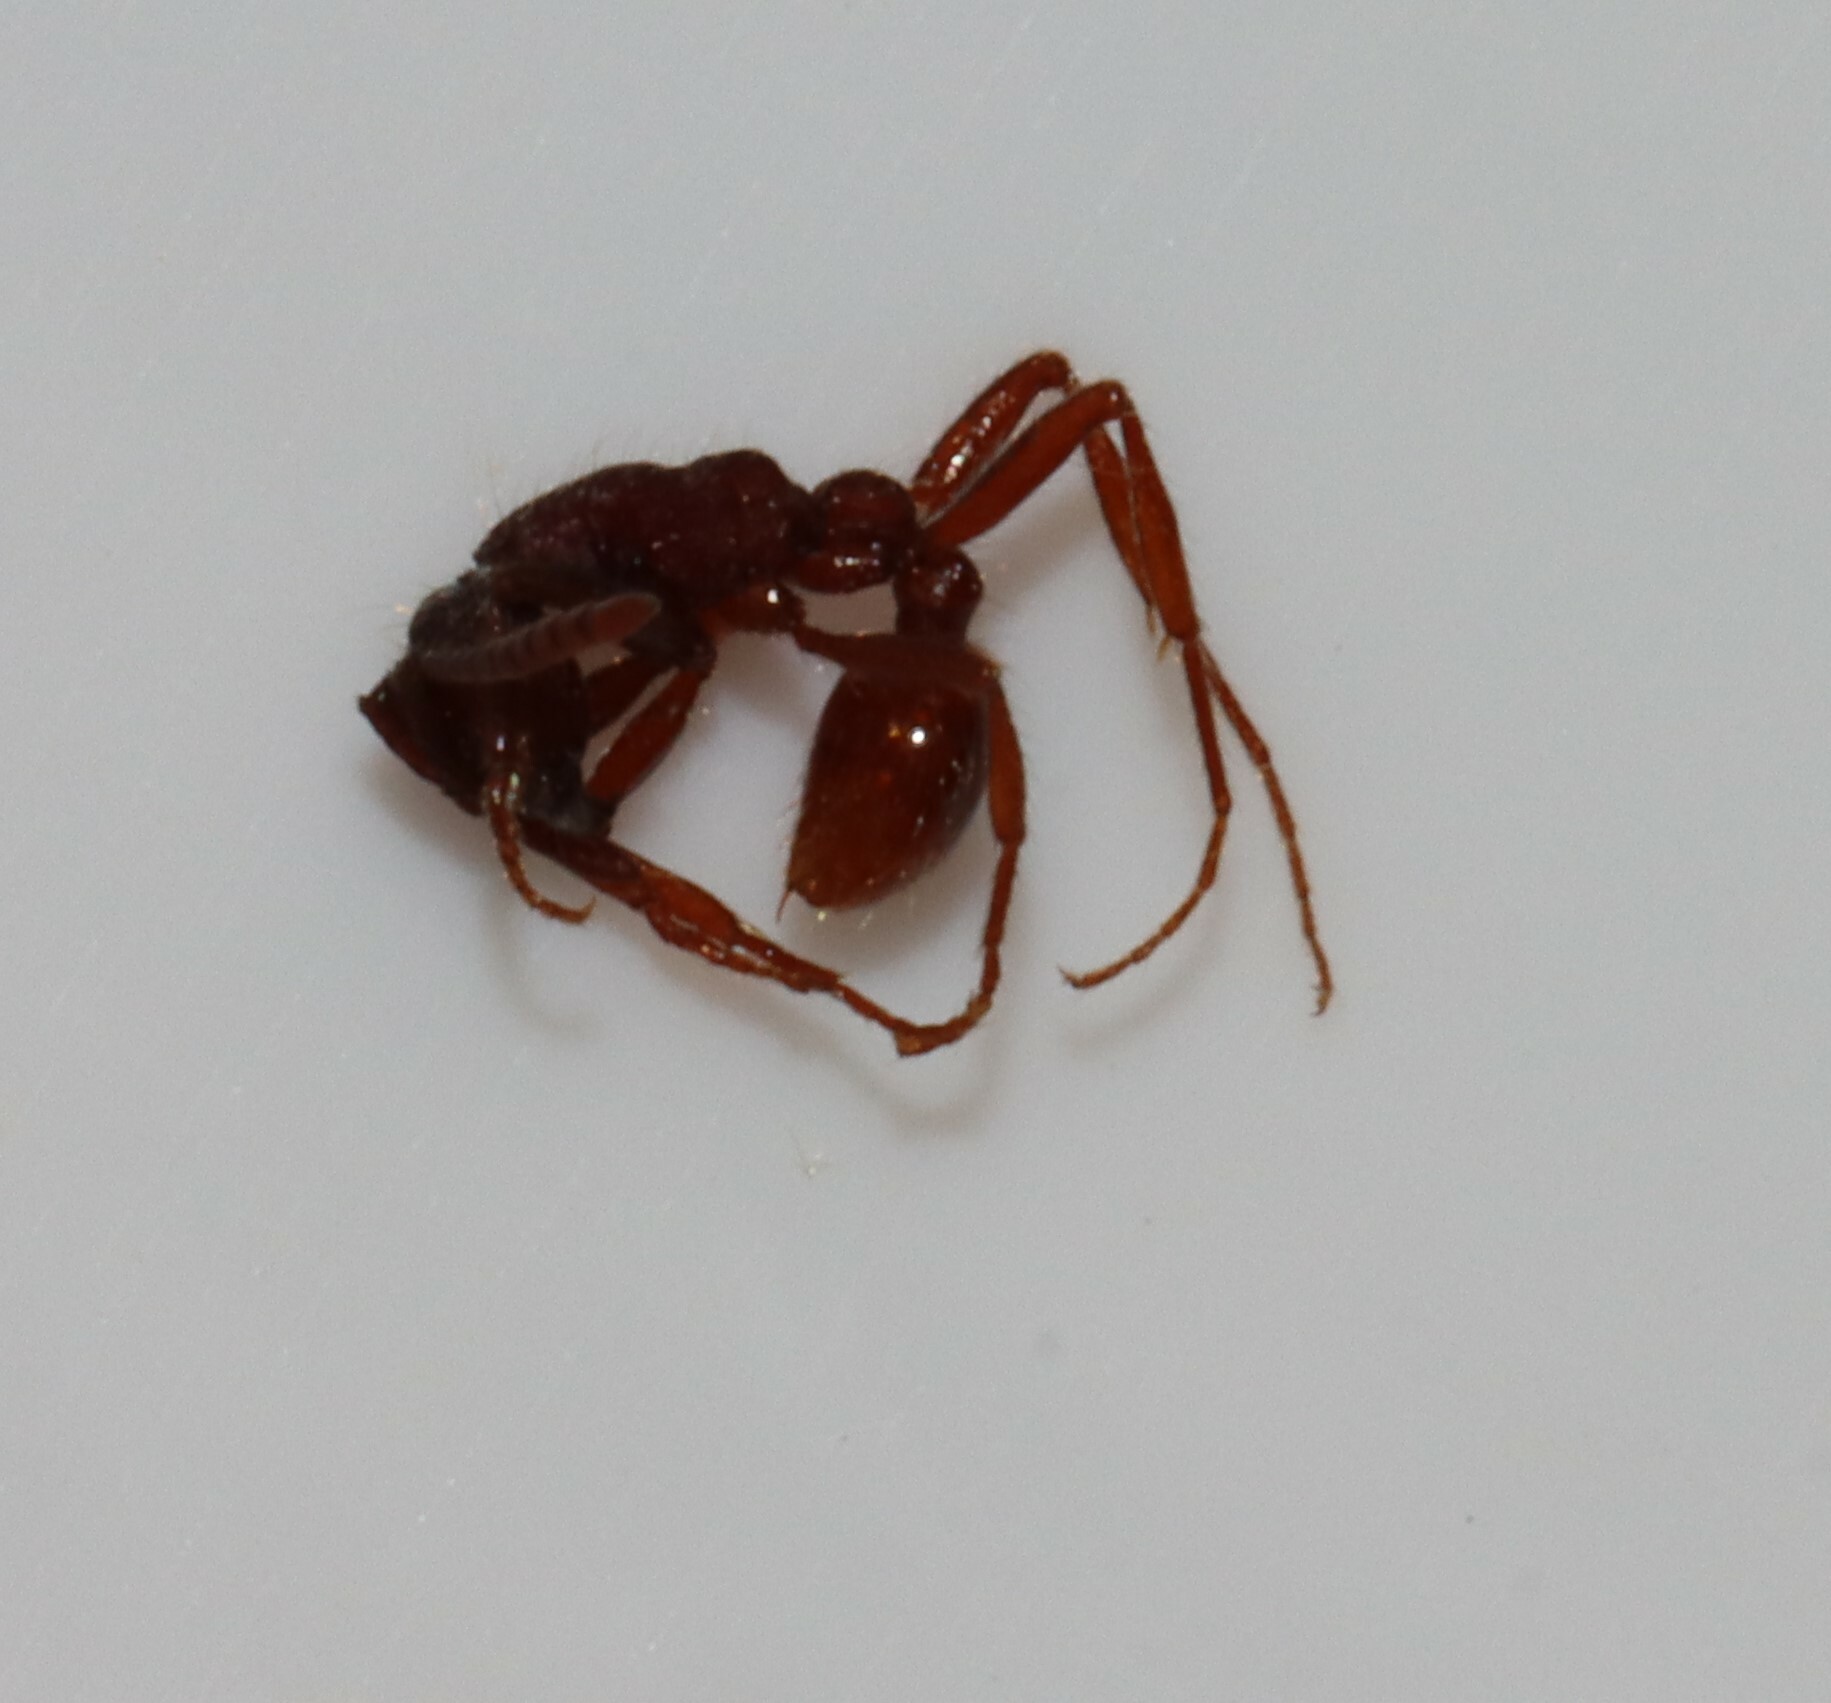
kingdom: Animalia
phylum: Arthropoda
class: Insecta
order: Hymenoptera
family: Formicidae
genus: Neivamyrmex
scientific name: Neivamyrmex nigrescens
